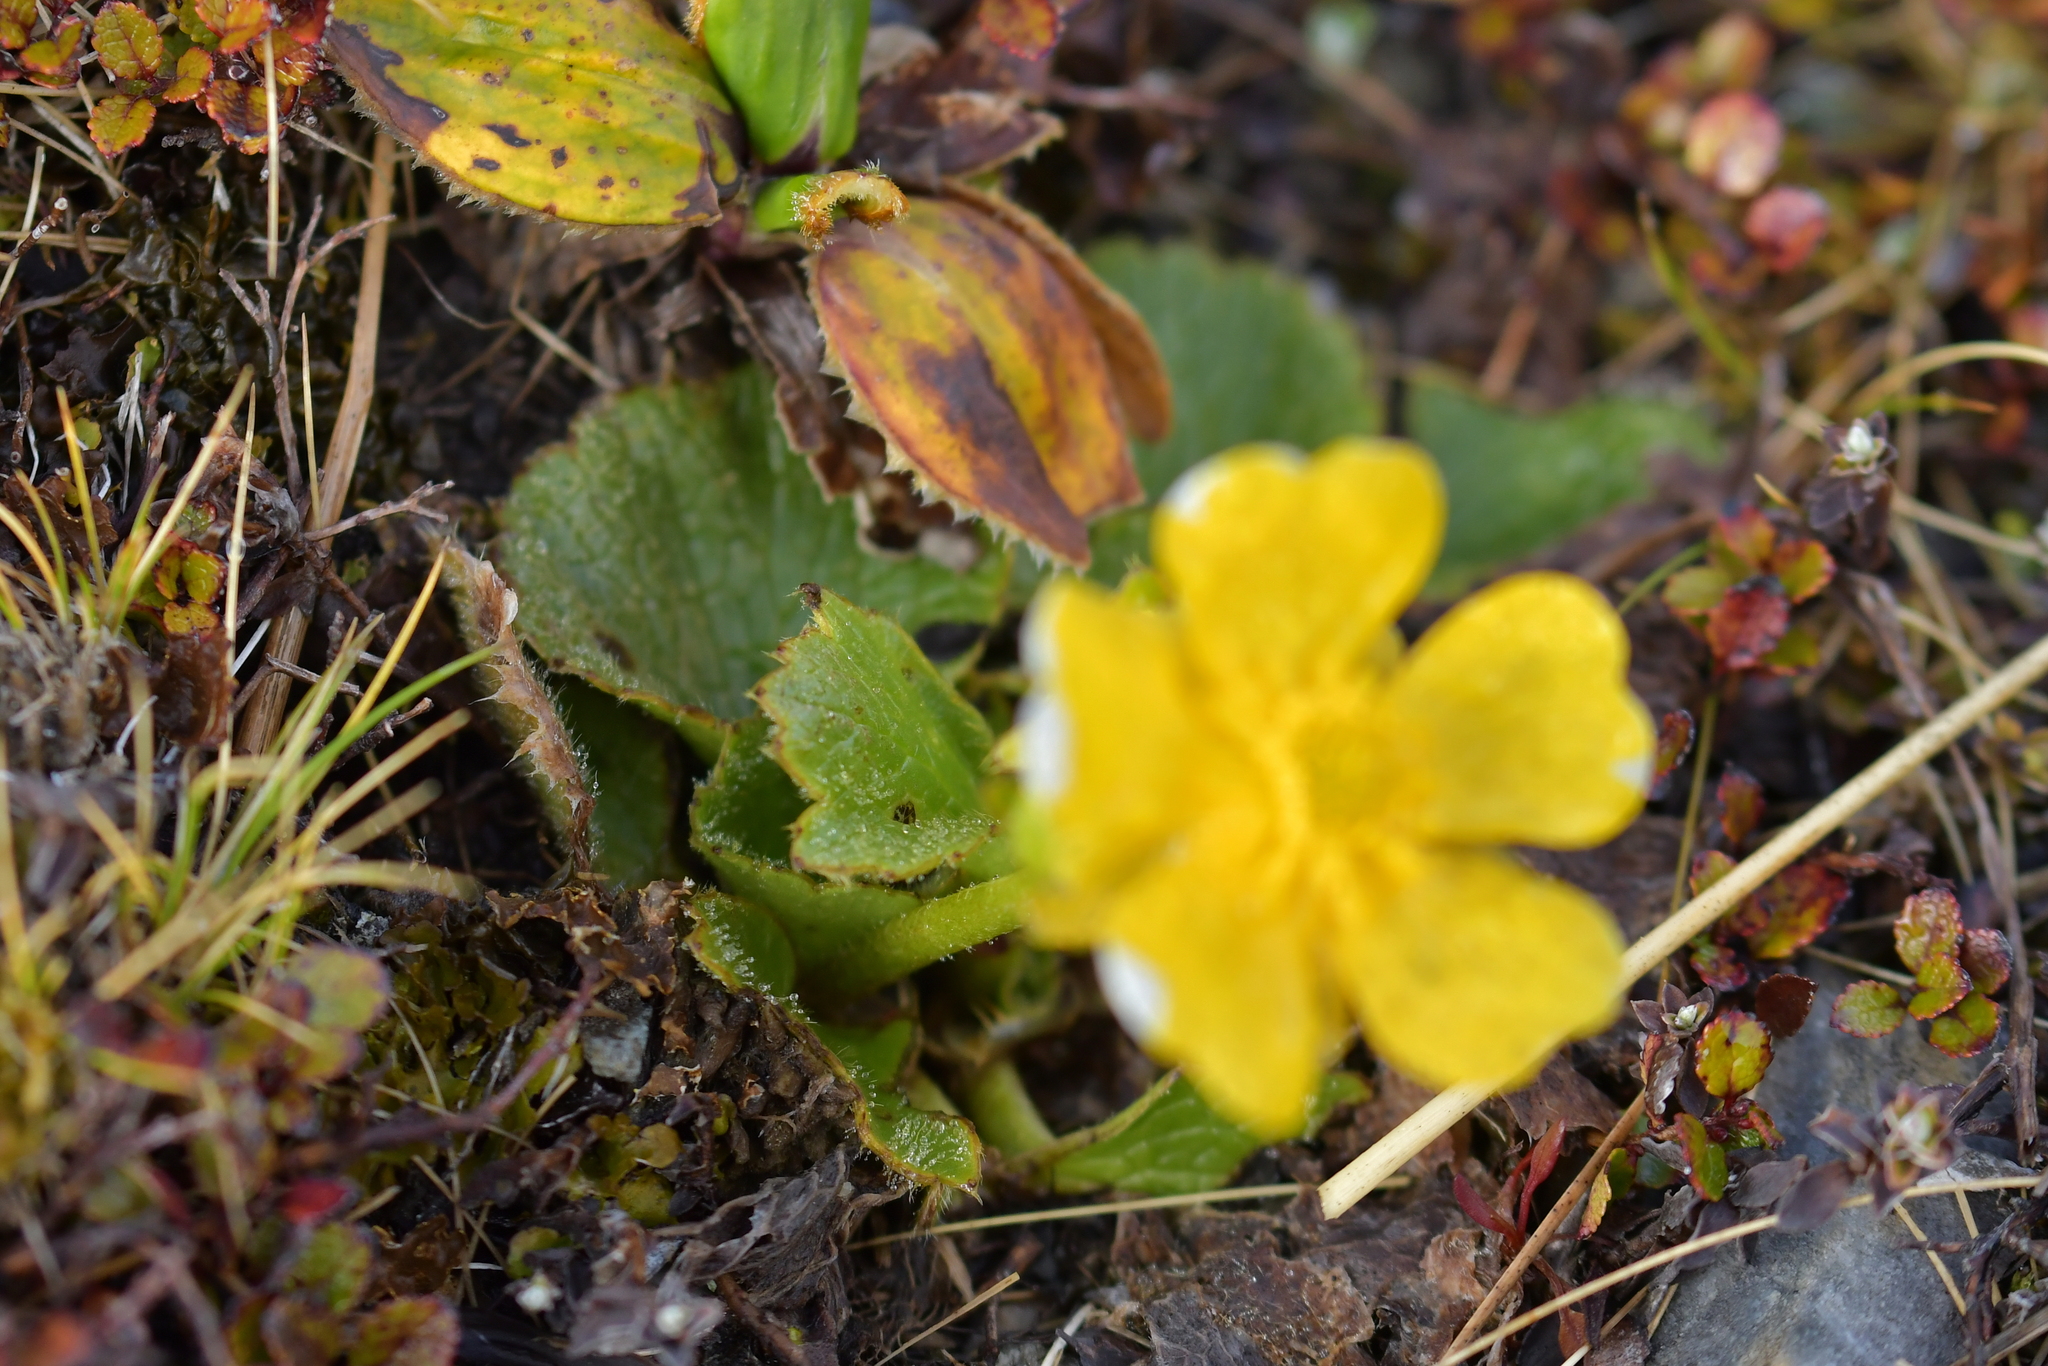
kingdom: Plantae
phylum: Tracheophyta
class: Magnoliopsida
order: Ranunculales
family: Ranunculaceae
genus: Ranunculus
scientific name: Ranunculus insignis
